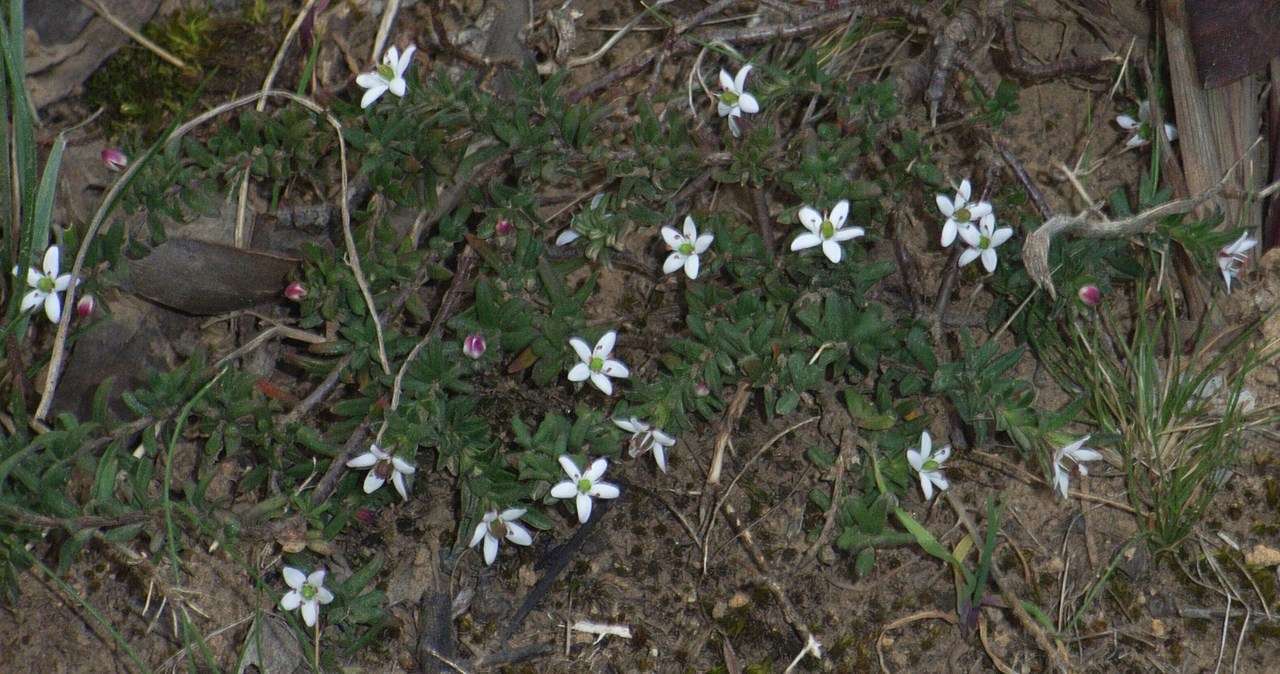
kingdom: Plantae
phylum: Tracheophyta
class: Magnoliopsida
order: Apiales
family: Pittosporaceae
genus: Rhytidosporum
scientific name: Rhytidosporum procumbens
